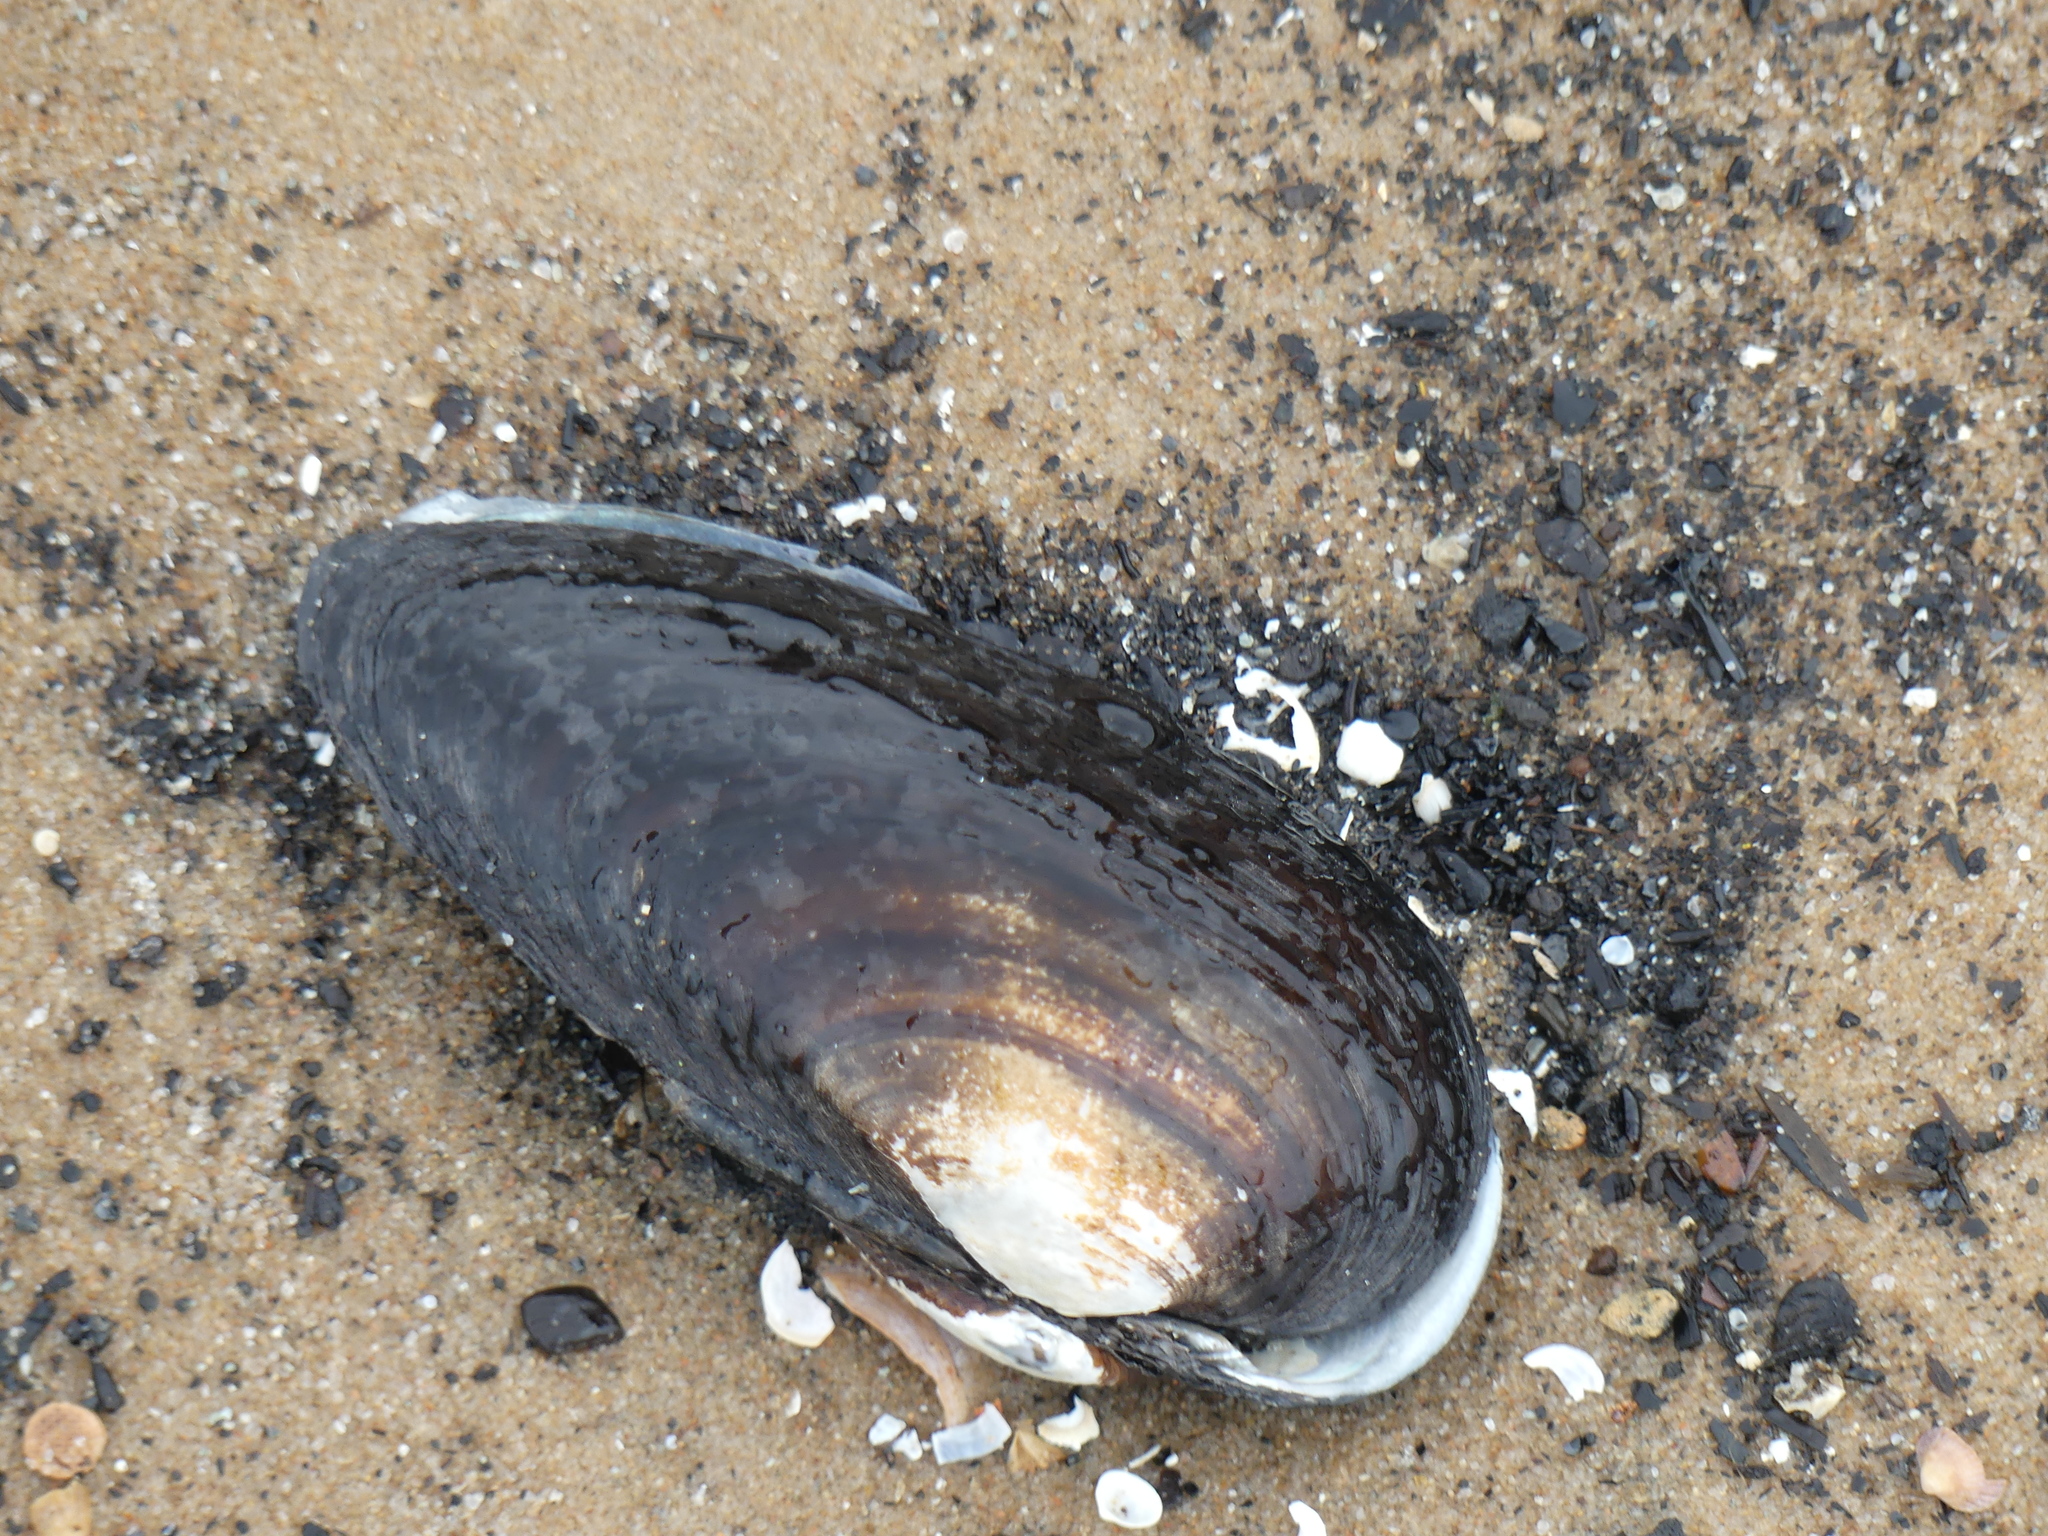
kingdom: Animalia
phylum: Mollusca
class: Bivalvia
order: Unionida
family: Unionidae
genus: Unio
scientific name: Unio tumidus
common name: Swollen river mussel
